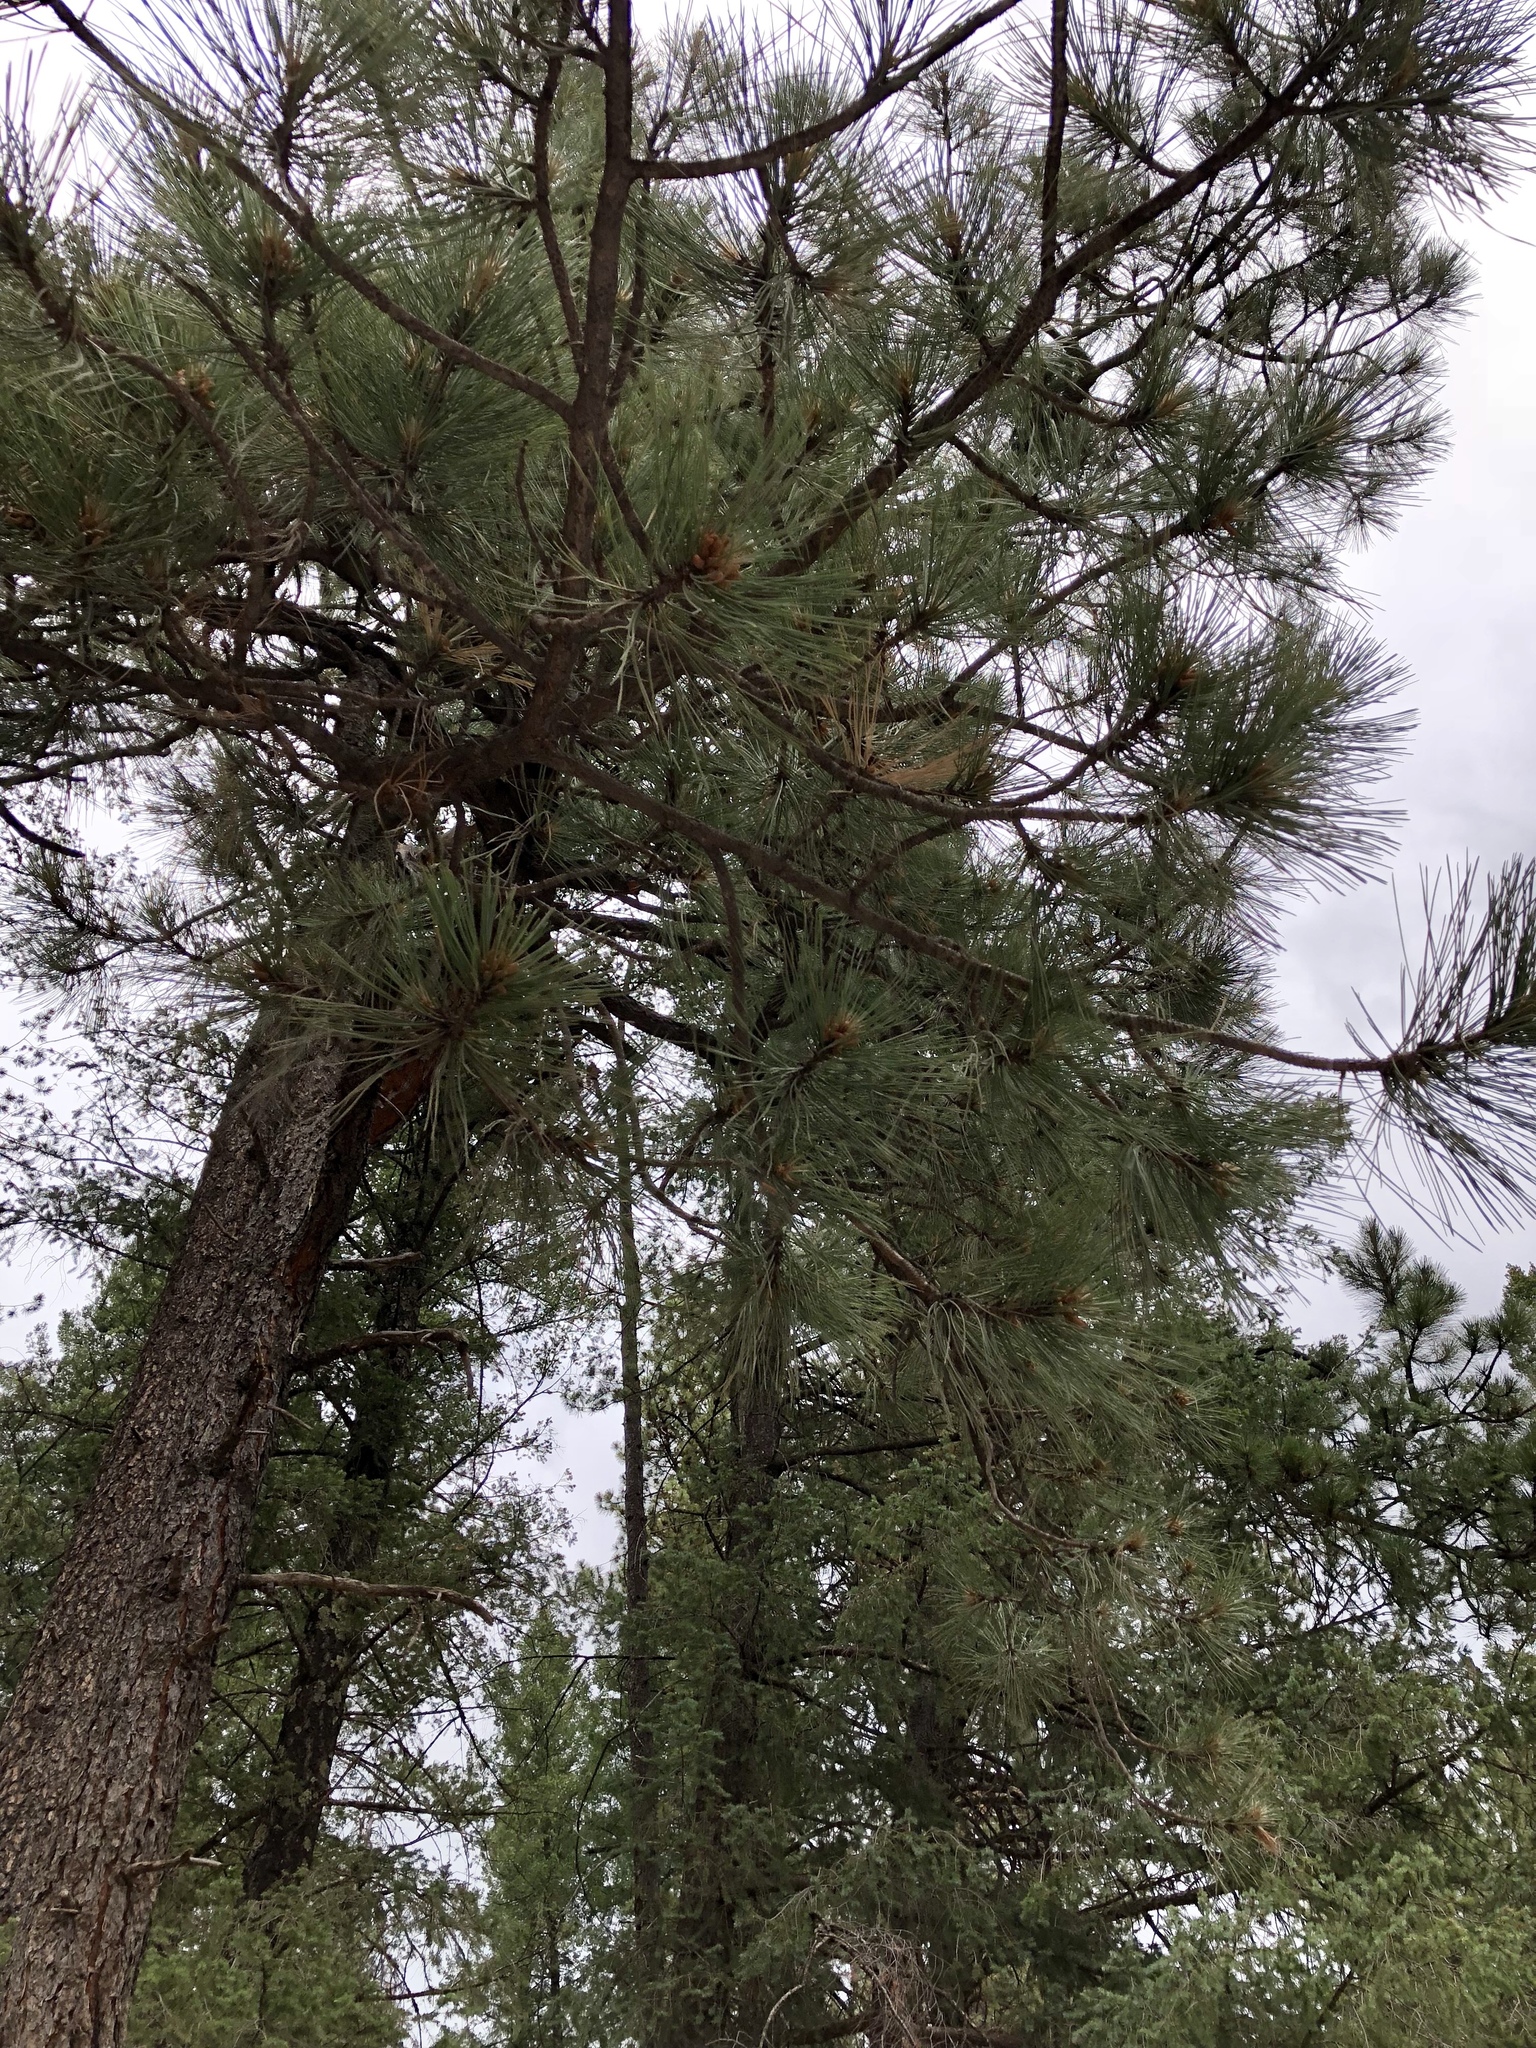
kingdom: Plantae
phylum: Tracheophyta
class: Pinopsida
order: Pinales
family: Pinaceae
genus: Pinus
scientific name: Pinus ponderosa
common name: Western yellow-pine
